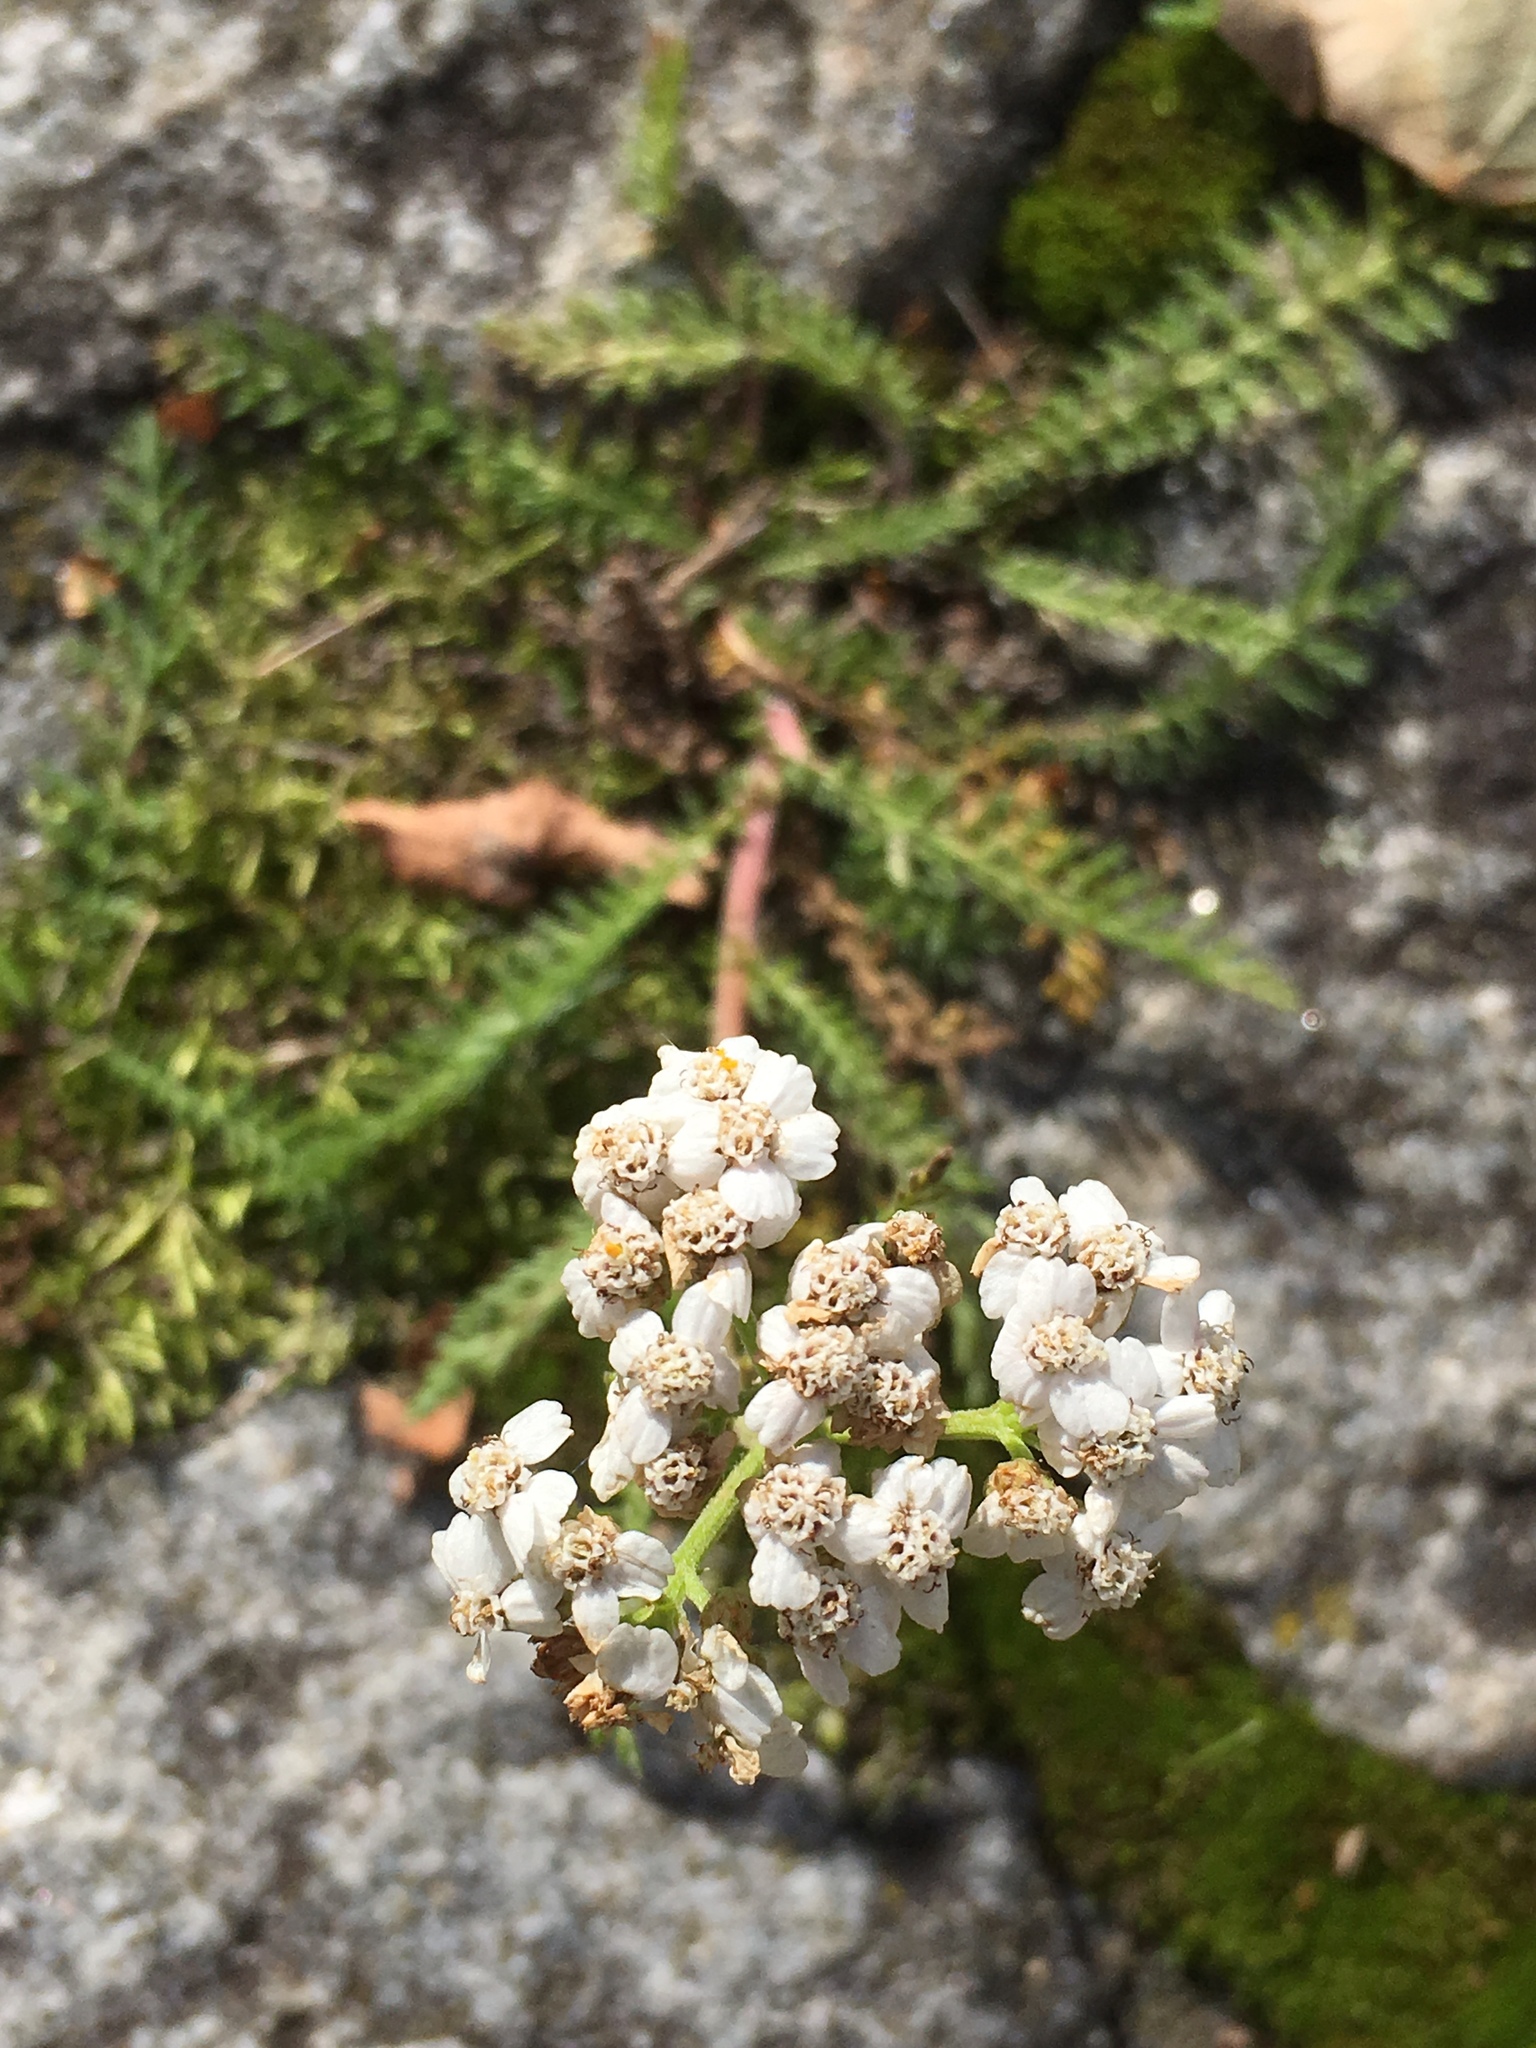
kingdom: Plantae
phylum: Tracheophyta
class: Magnoliopsida
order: Asterales
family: Asteraceae
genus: Achillea
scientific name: Achillea millefolium
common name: Yarrow
